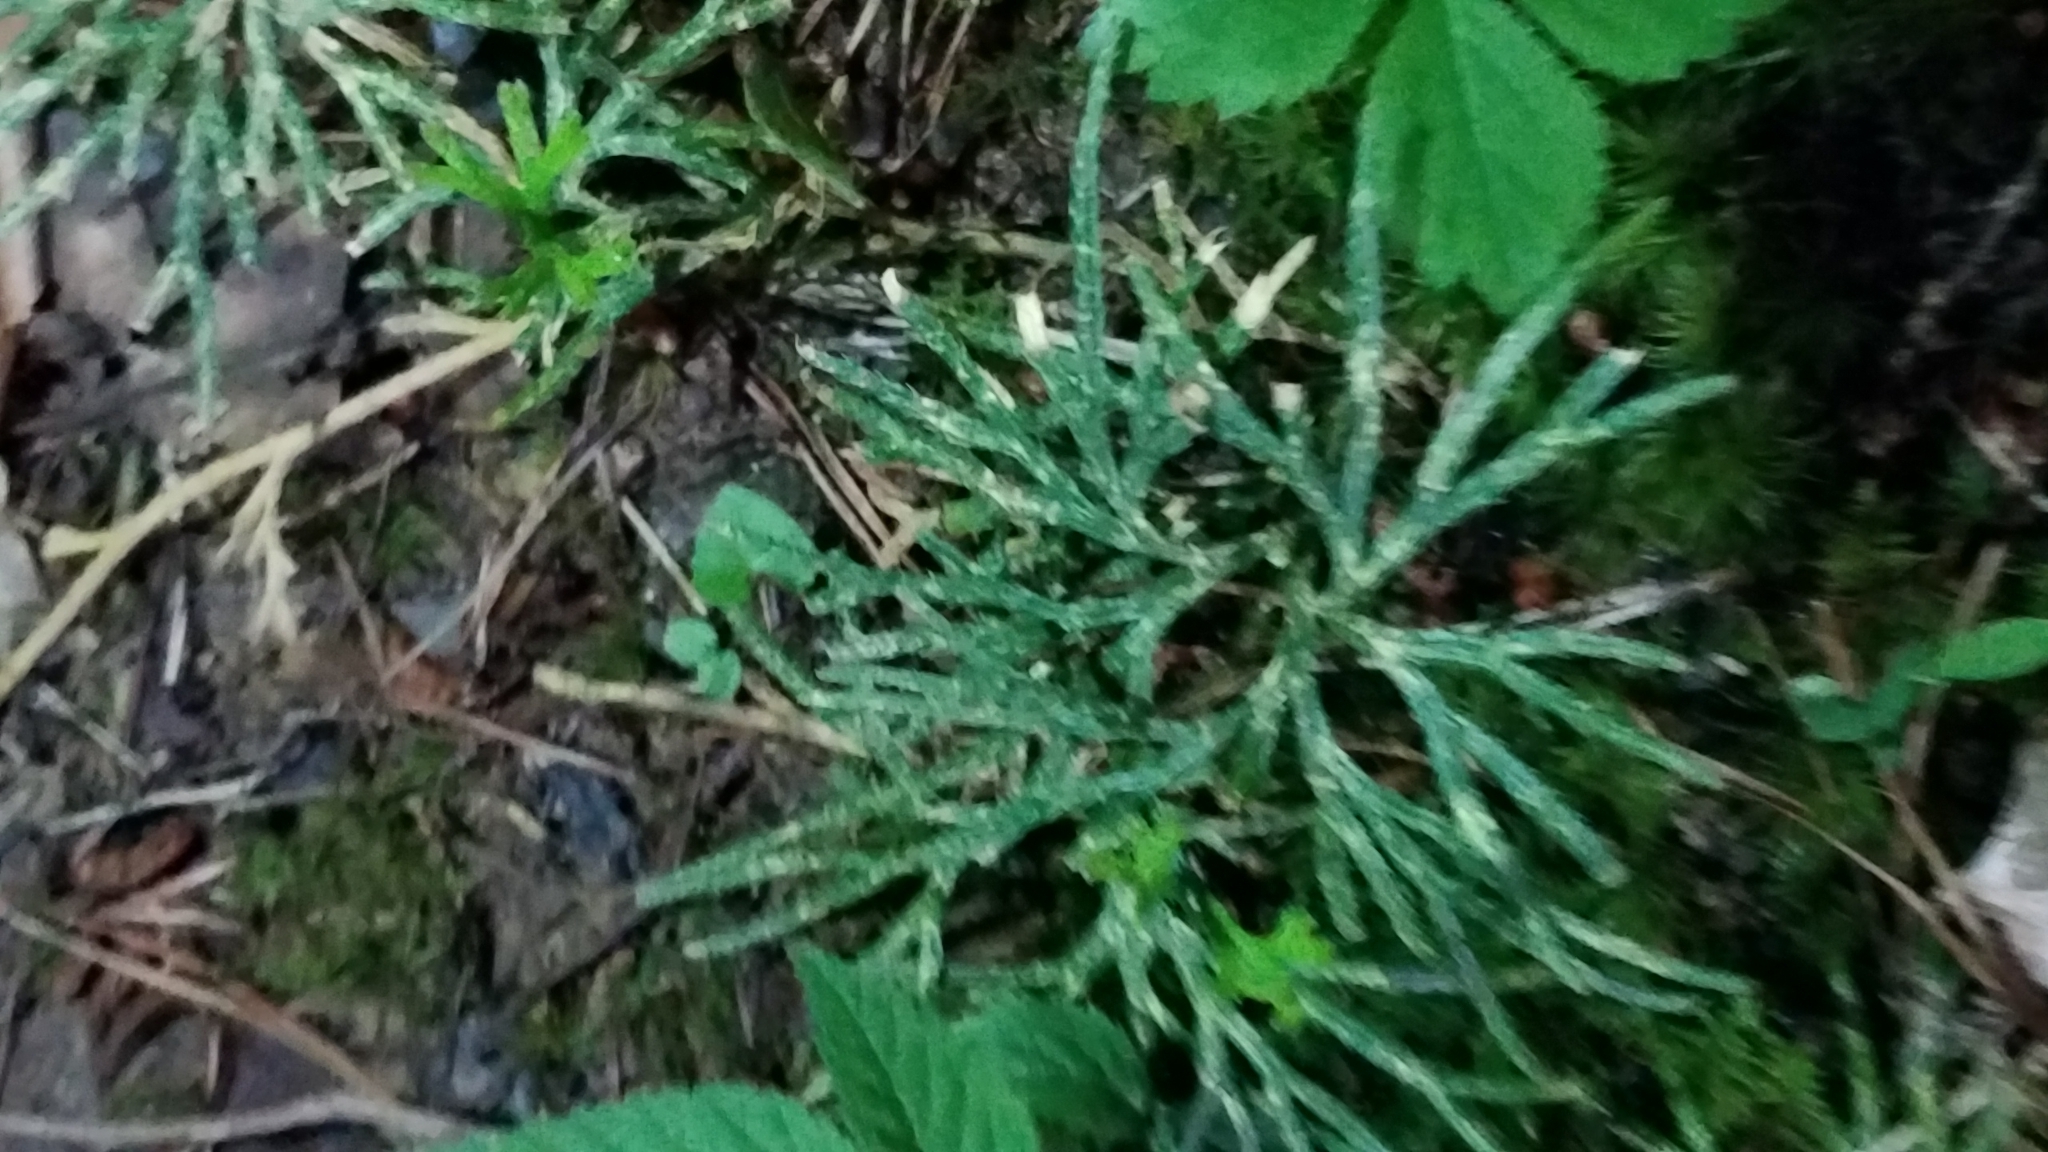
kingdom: Plantae
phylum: Tracheophyta
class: Lycopodiopsida
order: Lycopodiales
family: Lycopodiaceae
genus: Diphasiastrum
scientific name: Diphasiastrum digitatum
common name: Southern running-pine
